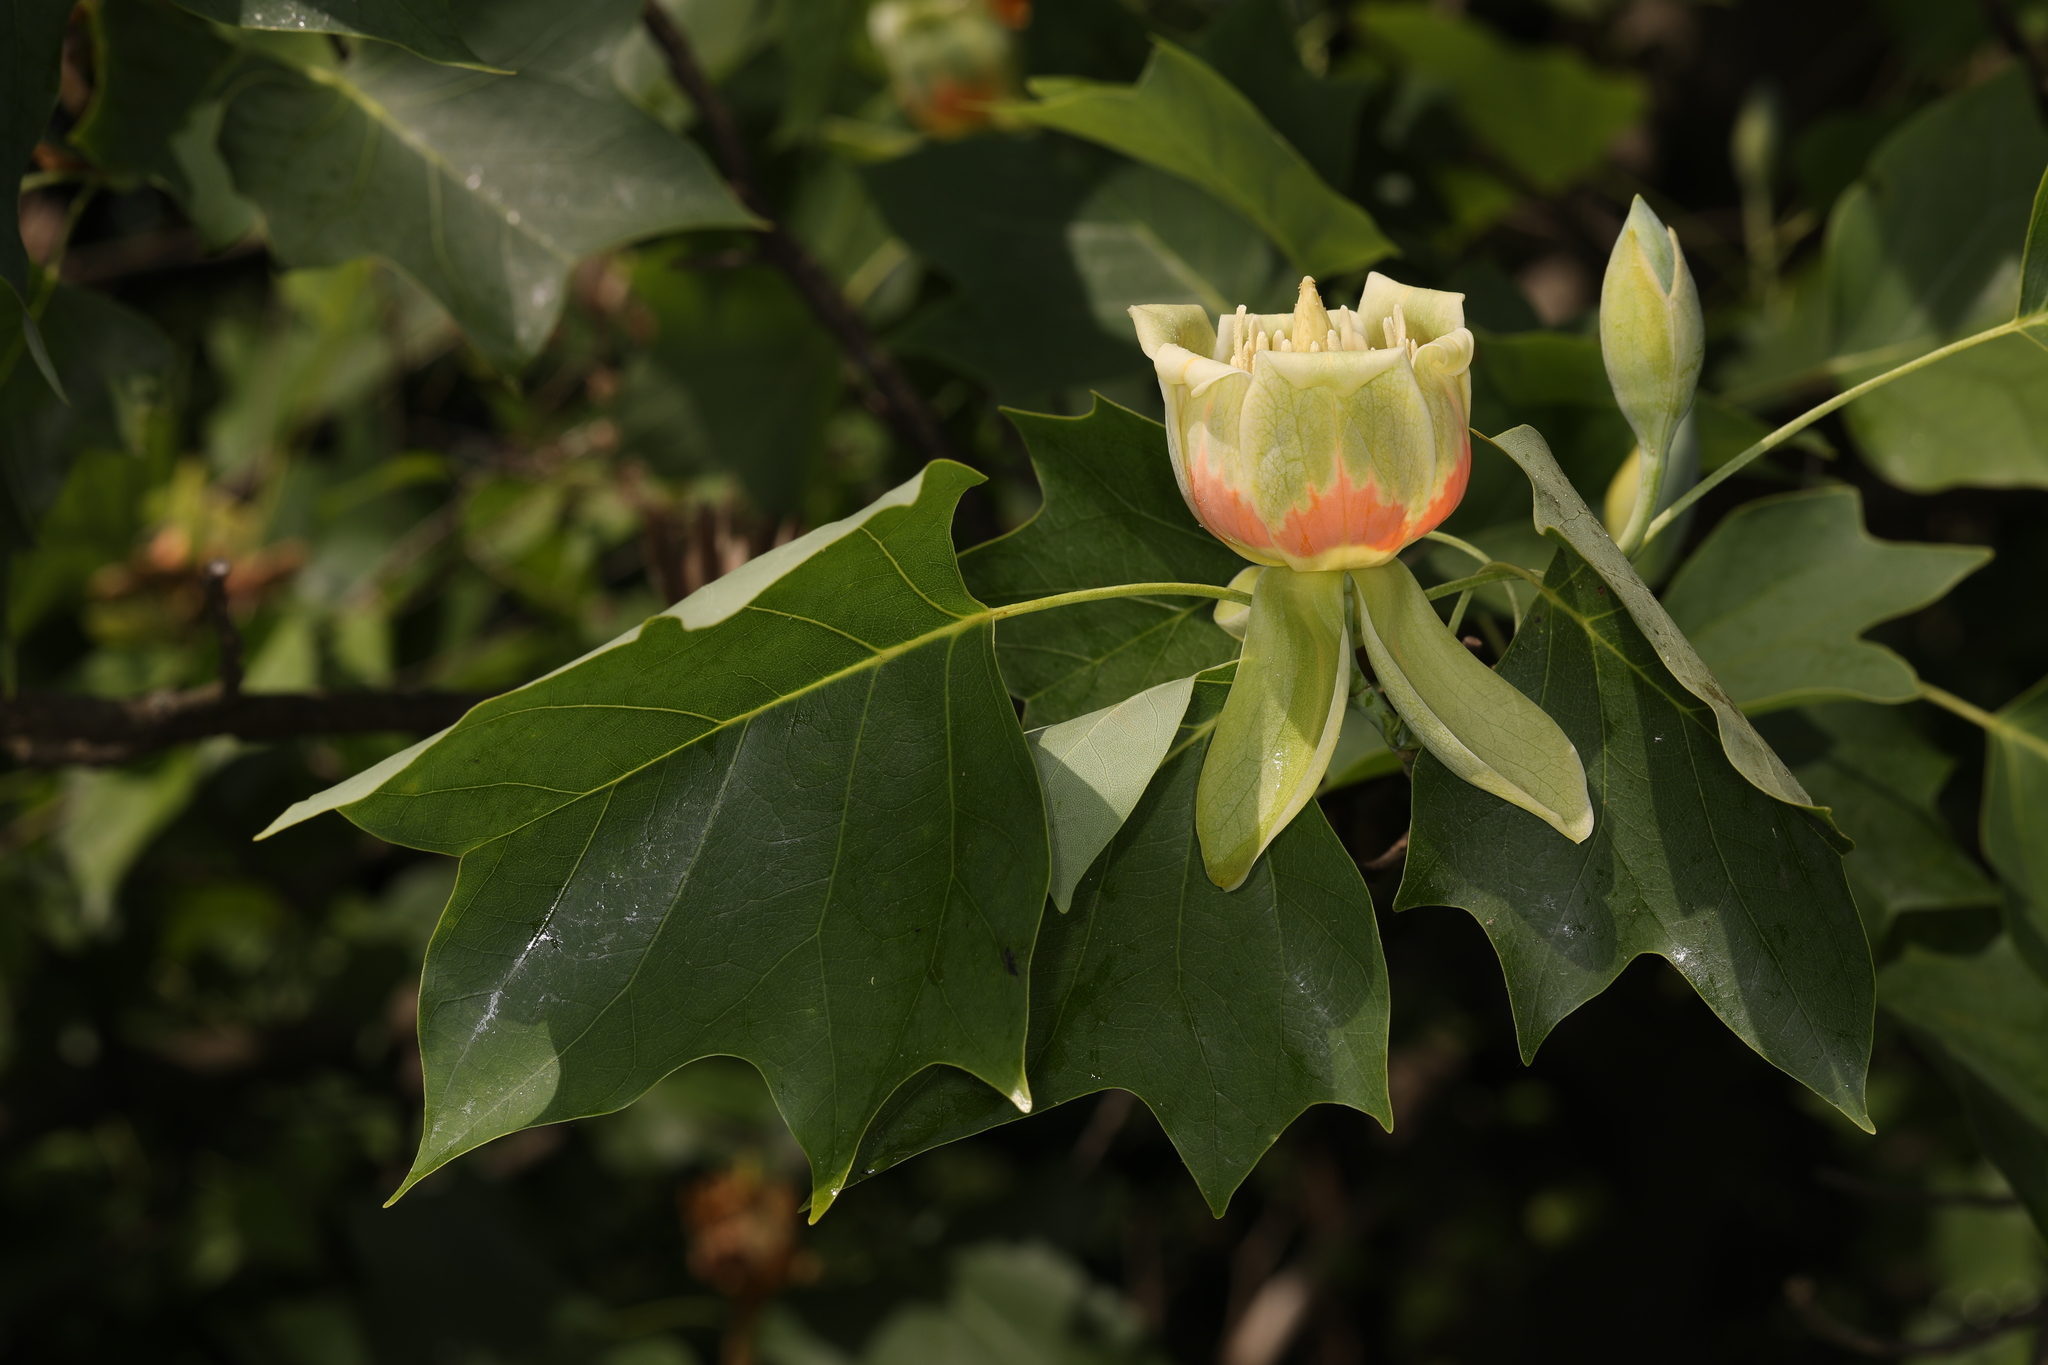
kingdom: Plantae
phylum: Tracheophyta
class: Magnoliopsida
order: Magnoliales
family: Magnoliaceae
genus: Liriodendron
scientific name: Liriodendron tulipifera
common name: Tulip tree
